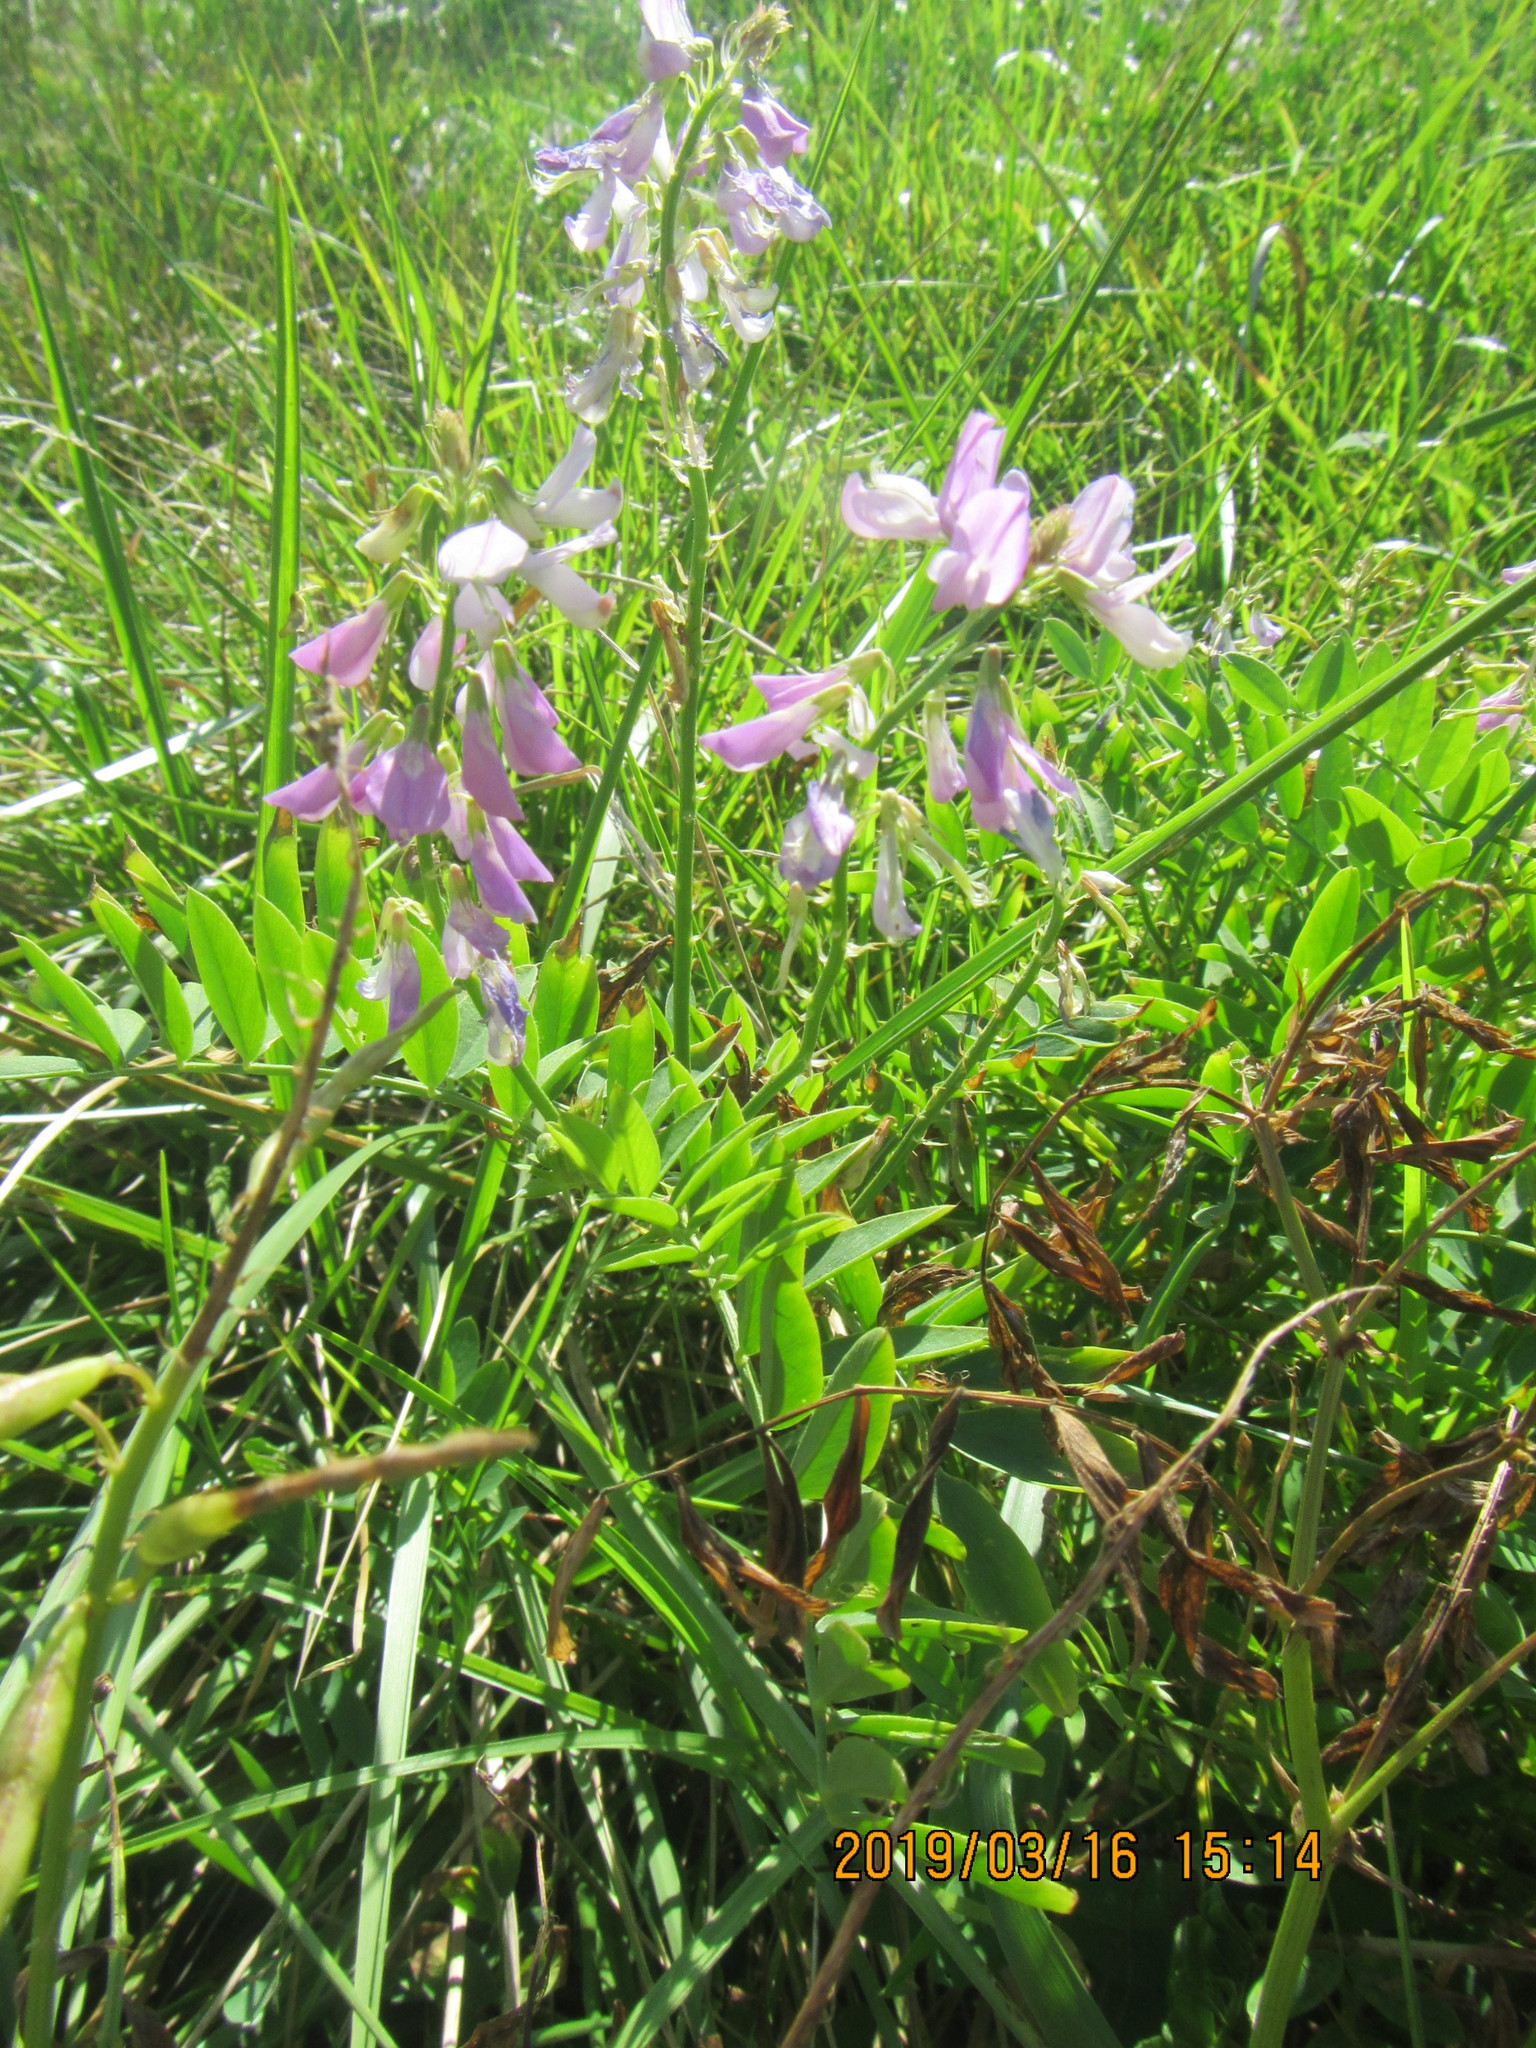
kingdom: Plantae
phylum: Tracheophyta
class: Magnoliopsida
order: Fabales
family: Fabaceae
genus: Galega
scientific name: Galega officinalis
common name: Goat's-rue
